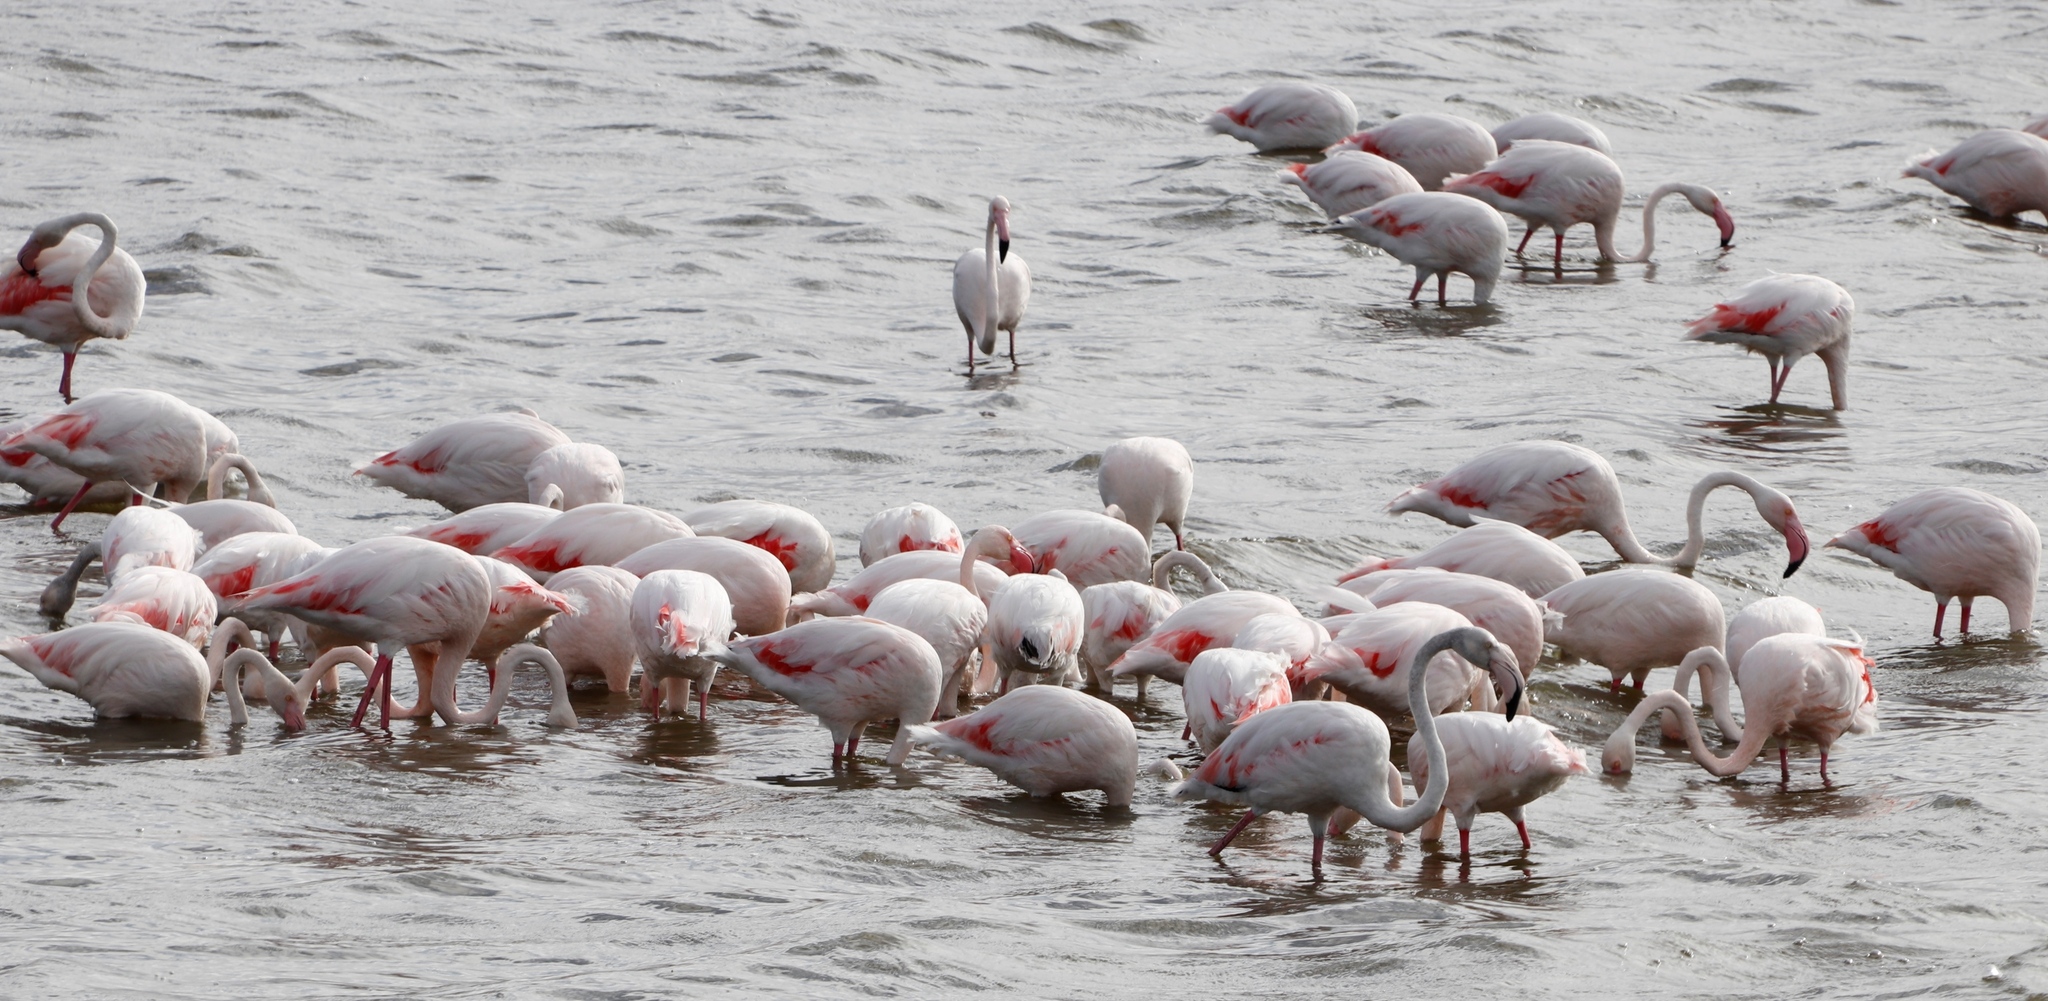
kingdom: Animalia
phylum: Chordata
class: Aves
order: Phoenicopteriformes
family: Phoenicopteridae
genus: Phoenicopterus
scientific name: Phoenicopterus roseus
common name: Greater flamingo
